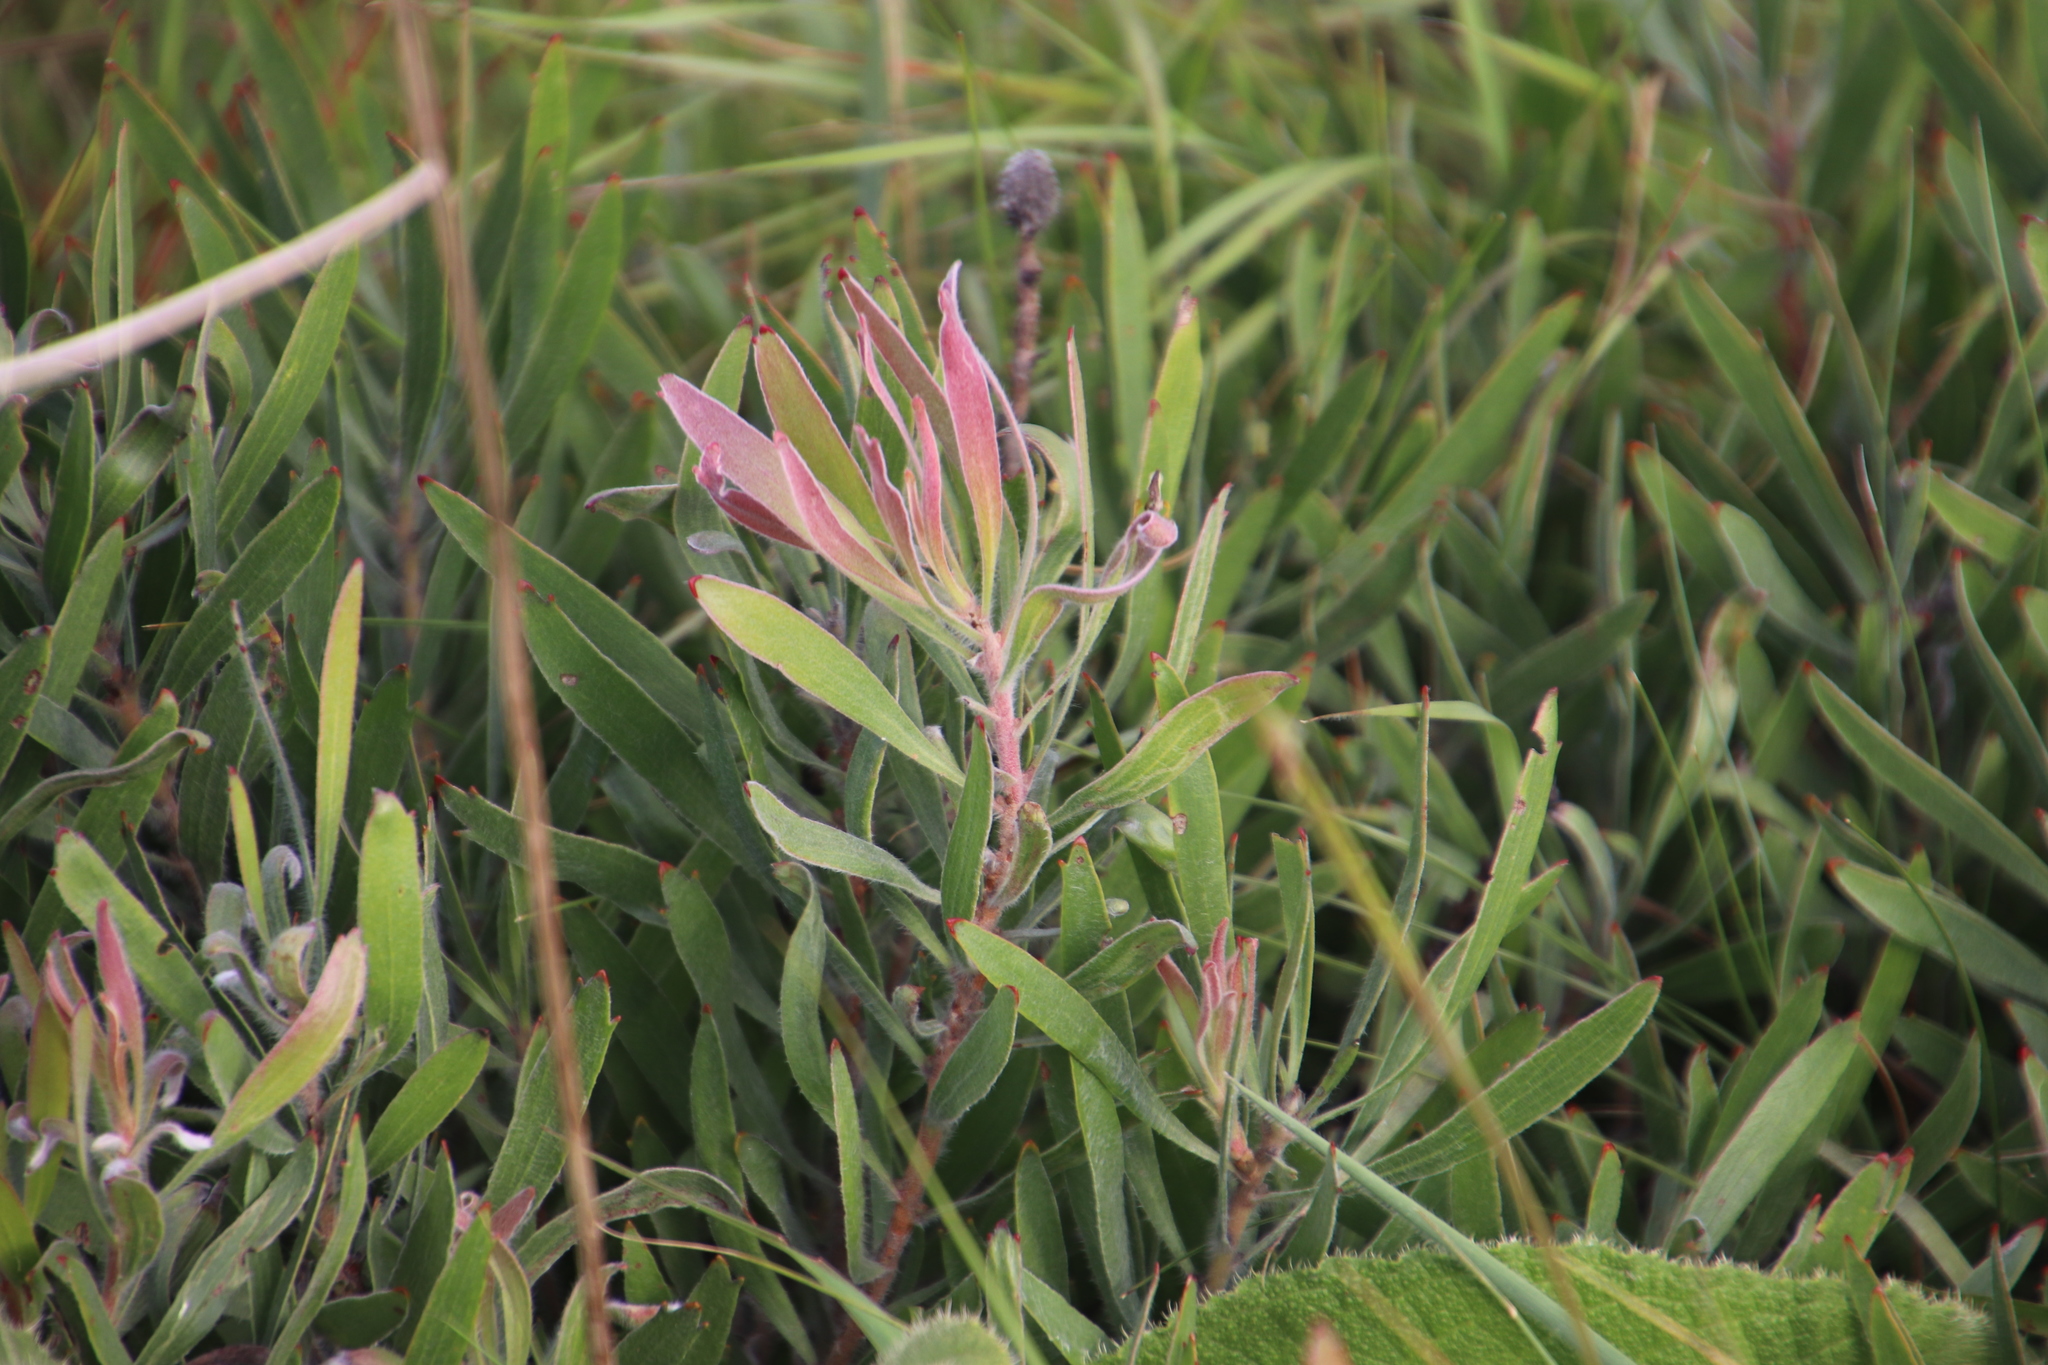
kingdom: Plantae
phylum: Tracheophyta
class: Magnoliopsida
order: Proteales
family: Proteaceae
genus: Leucospermum
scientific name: Leucospermum gerrardii
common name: Soapstone pincushion
